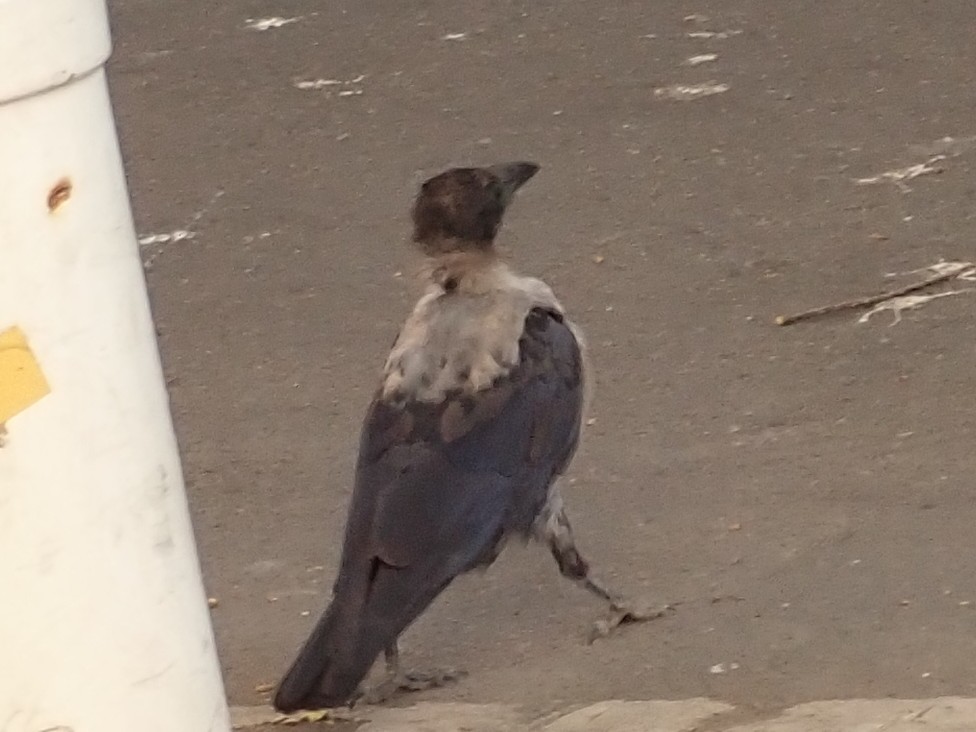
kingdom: Animalia
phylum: Chordata
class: Aves
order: Passeriformes
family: Corvidae
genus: Corvus
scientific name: Corvus
